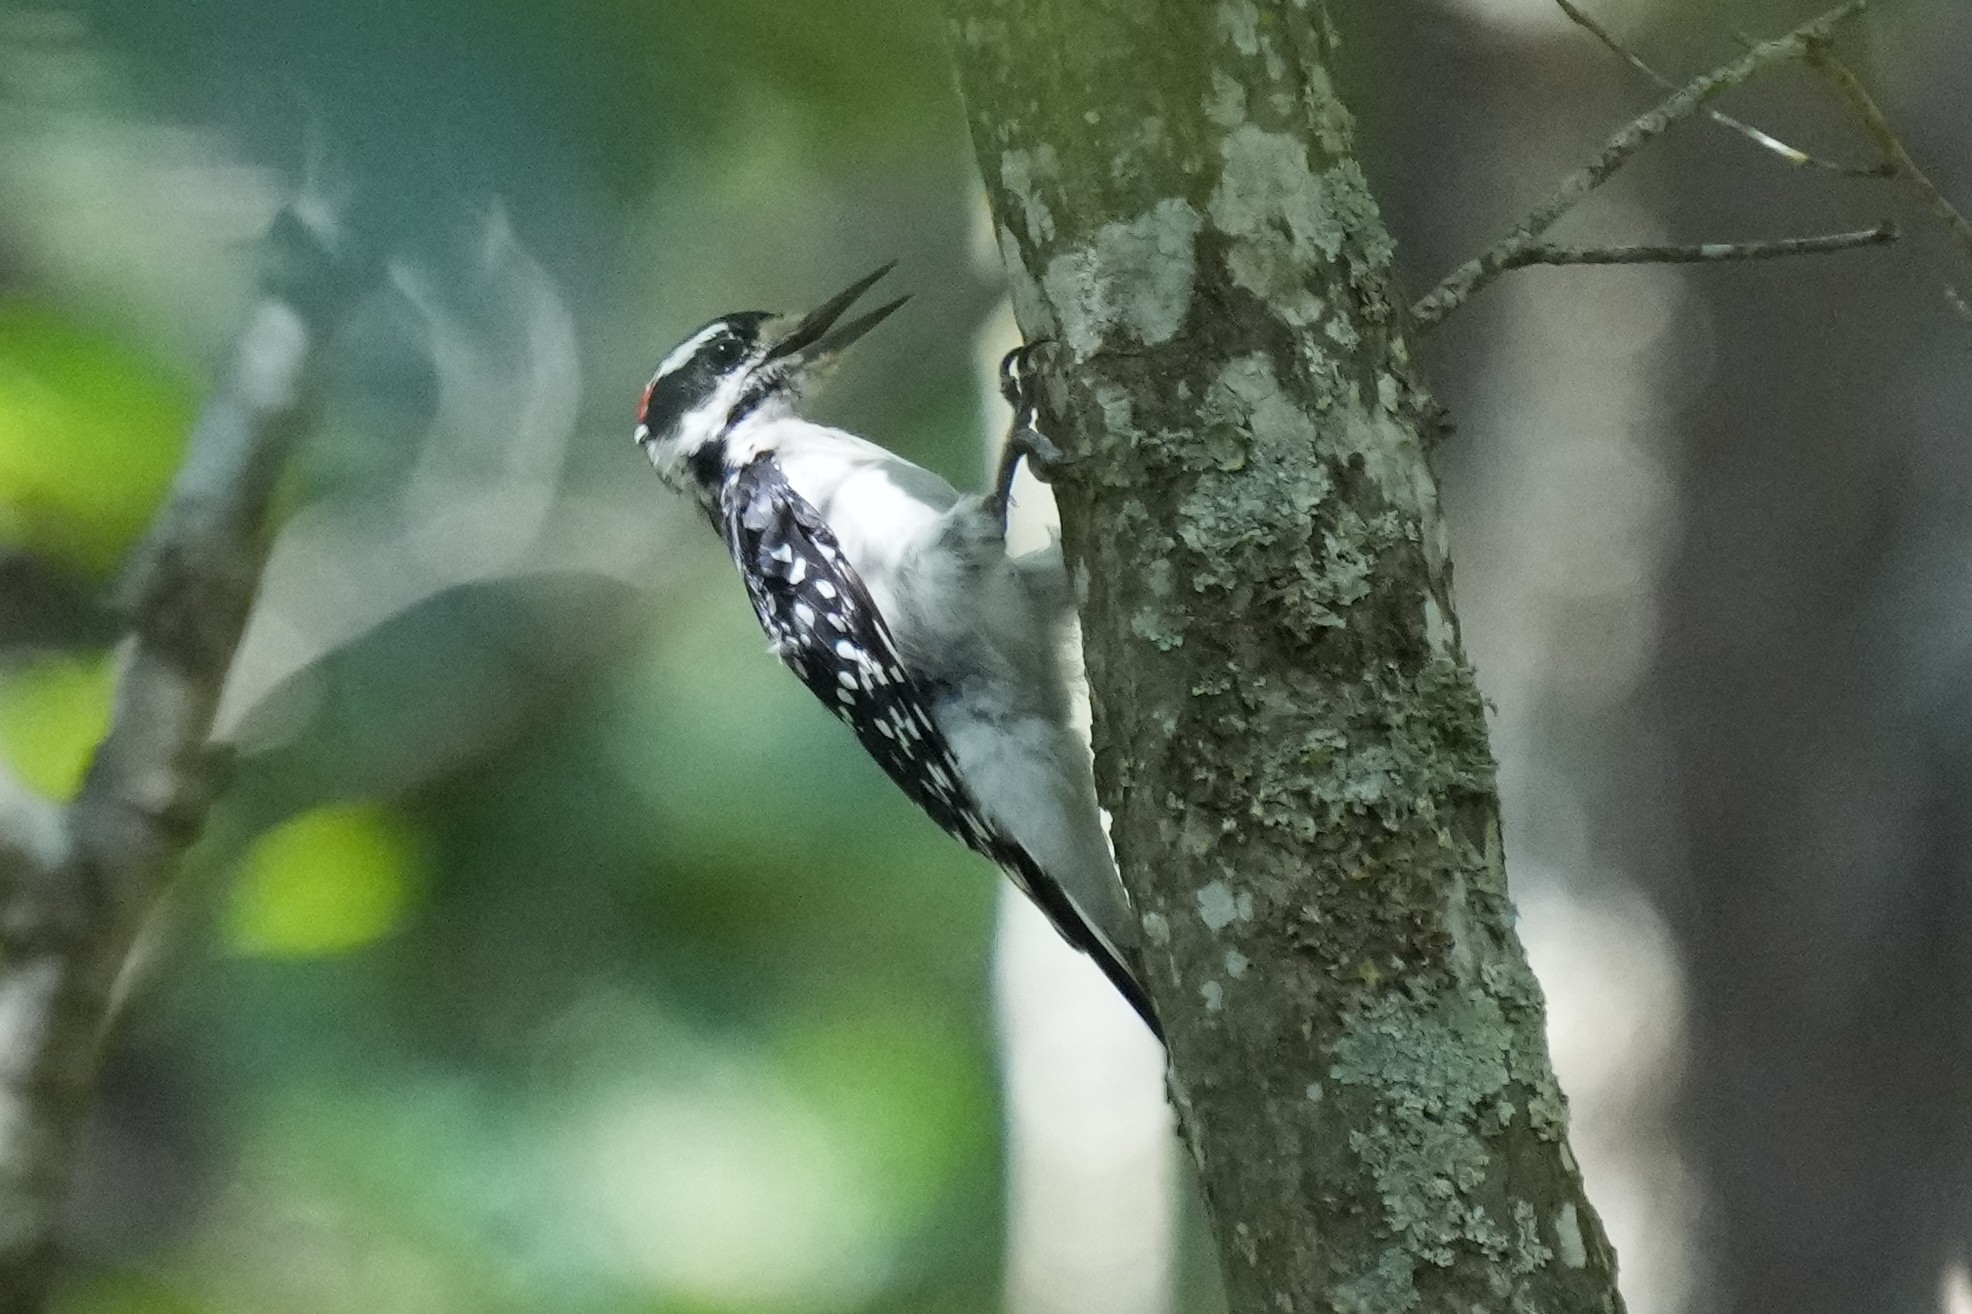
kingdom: Animalia
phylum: Chordata
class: Aves
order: Piciformes
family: Picidae
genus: Leuconotopicus
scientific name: Leuconotopicus villosus
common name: Hairy woodpecker
